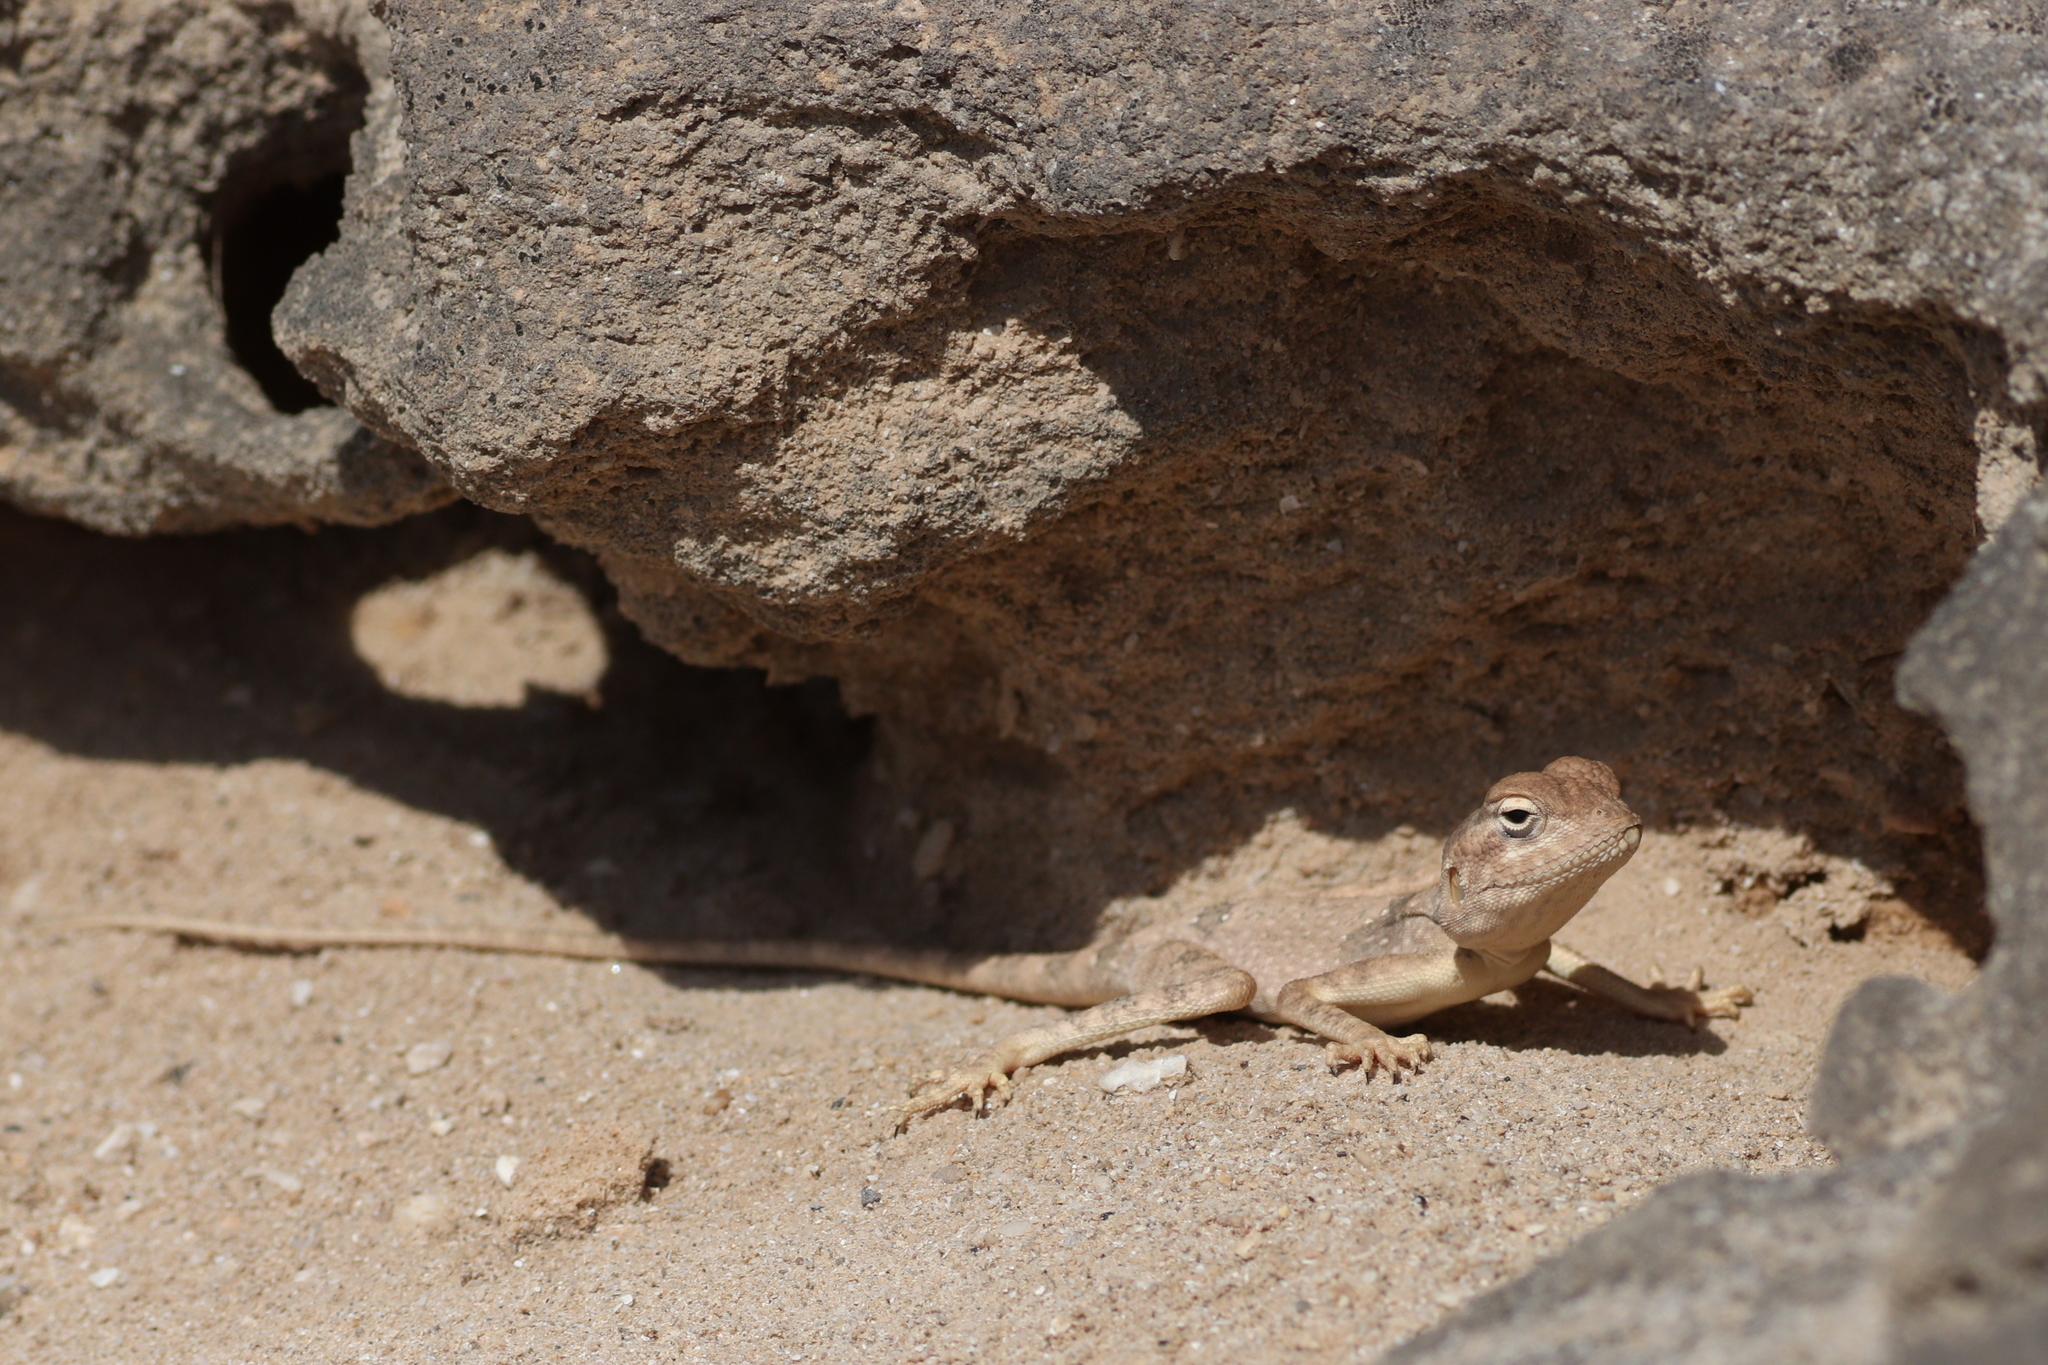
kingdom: Animalia
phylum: Chordata
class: Squamata
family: Agamidae
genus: Pseudotrapelus
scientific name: Pseudotrapelus dhofarensis
